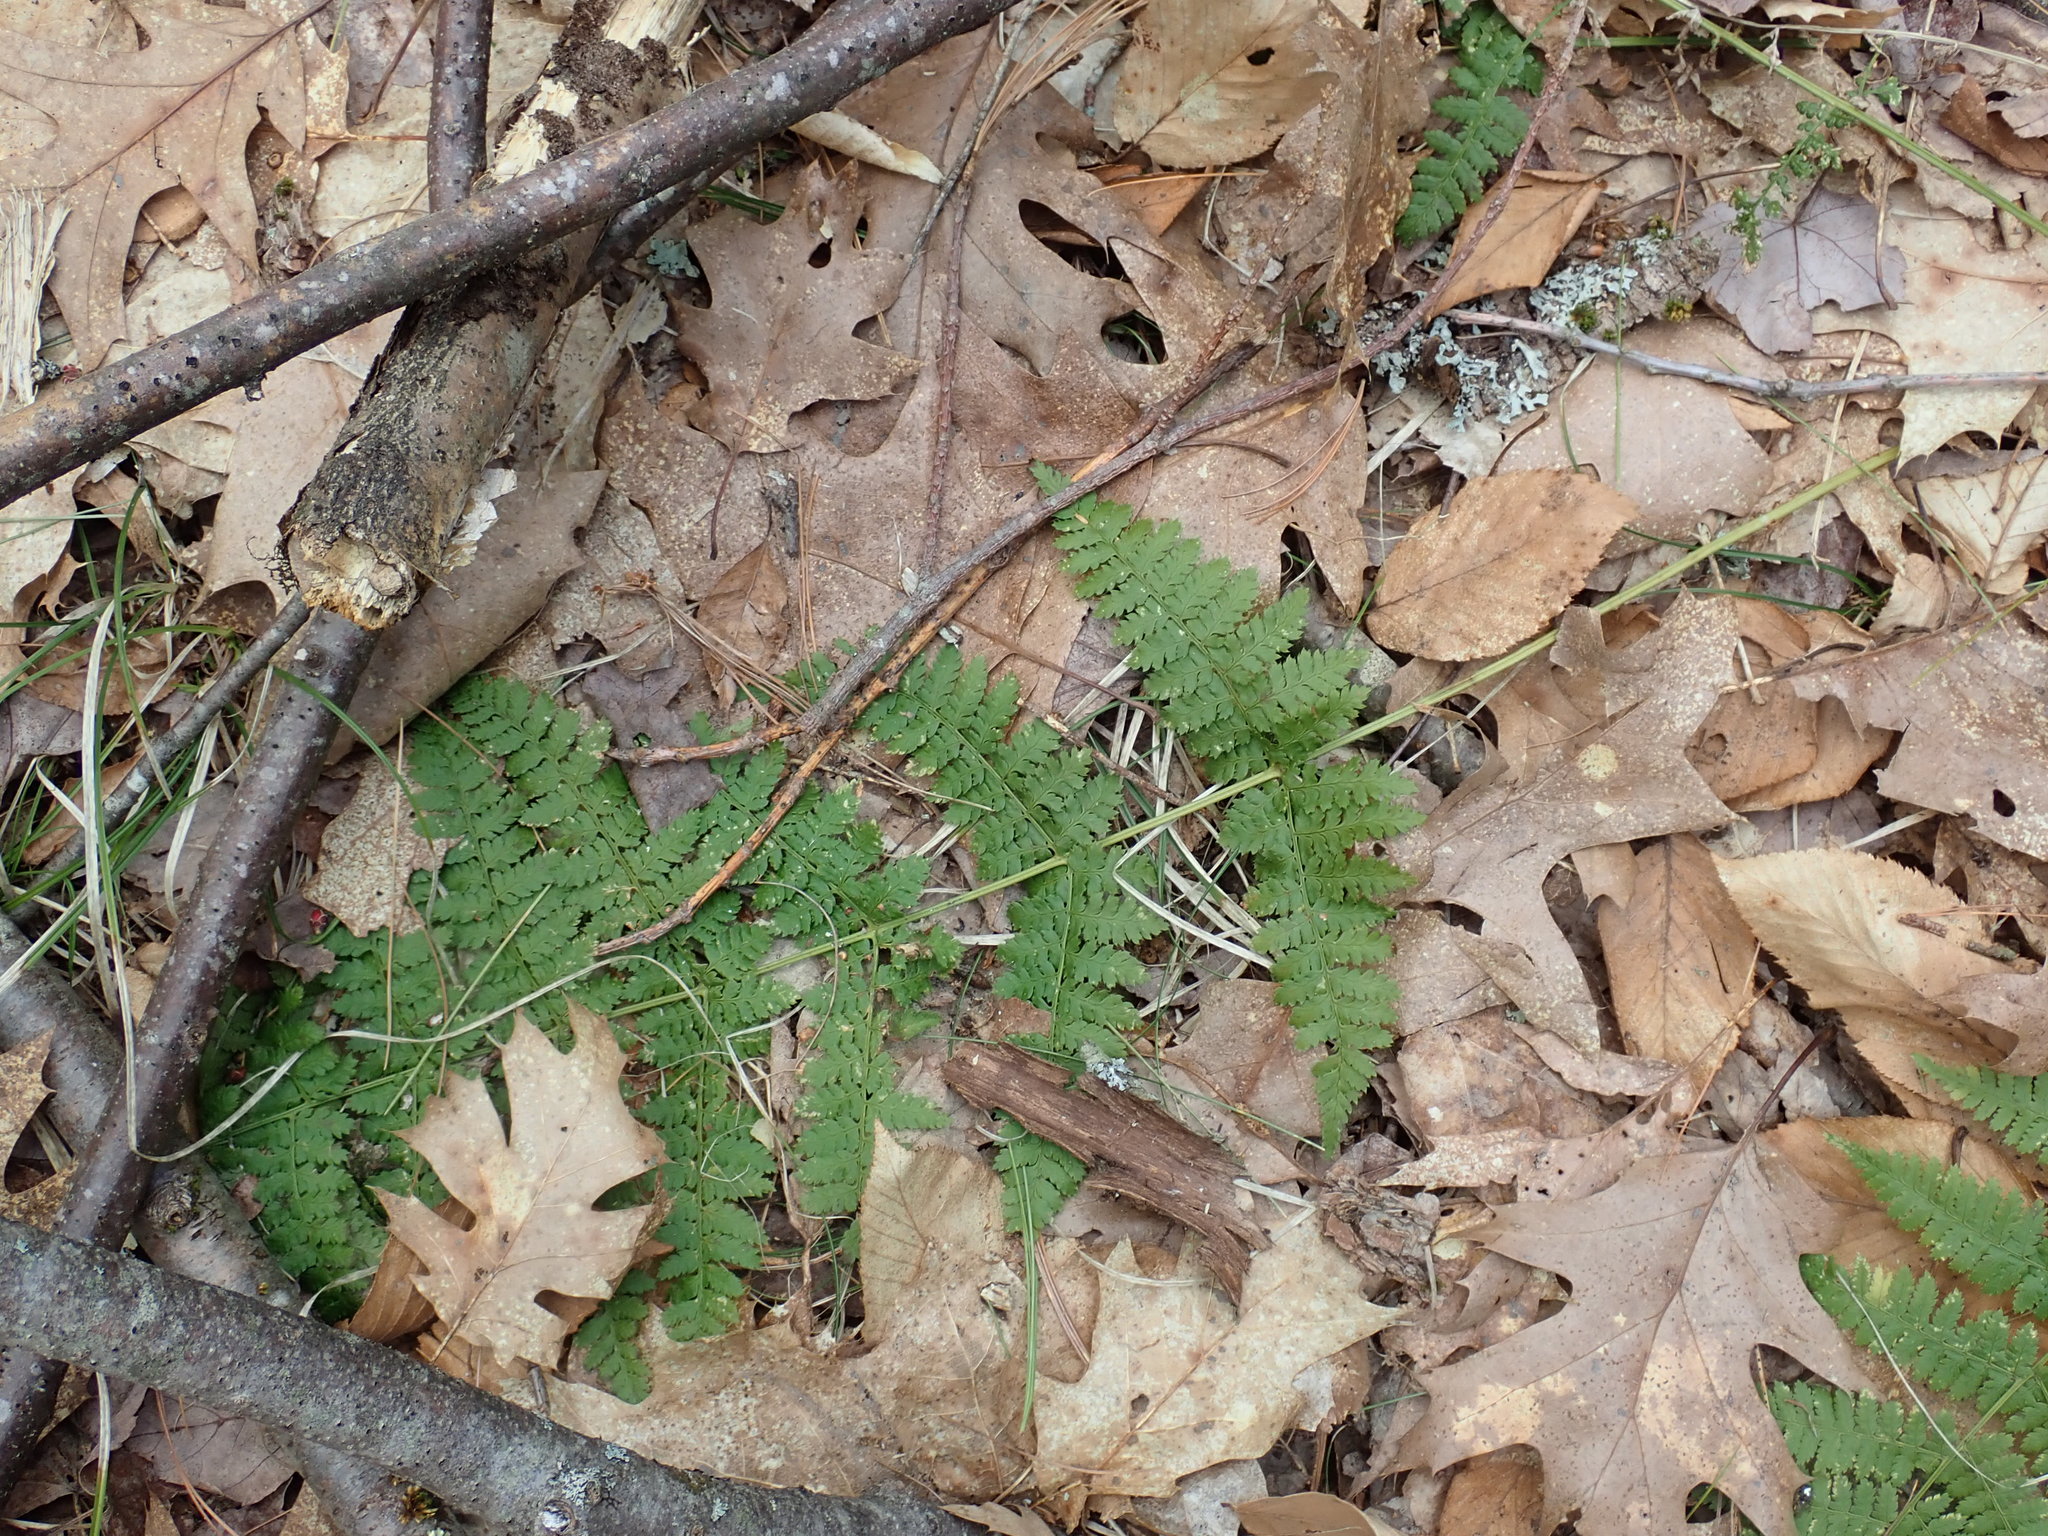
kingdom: Plantae
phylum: Tracheophyta
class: Polypodiopsida
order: Polypodiales
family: Dryopteridaceae
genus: Dryopteris
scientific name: Dryopteris intermedia
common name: Evergreen wood fern
